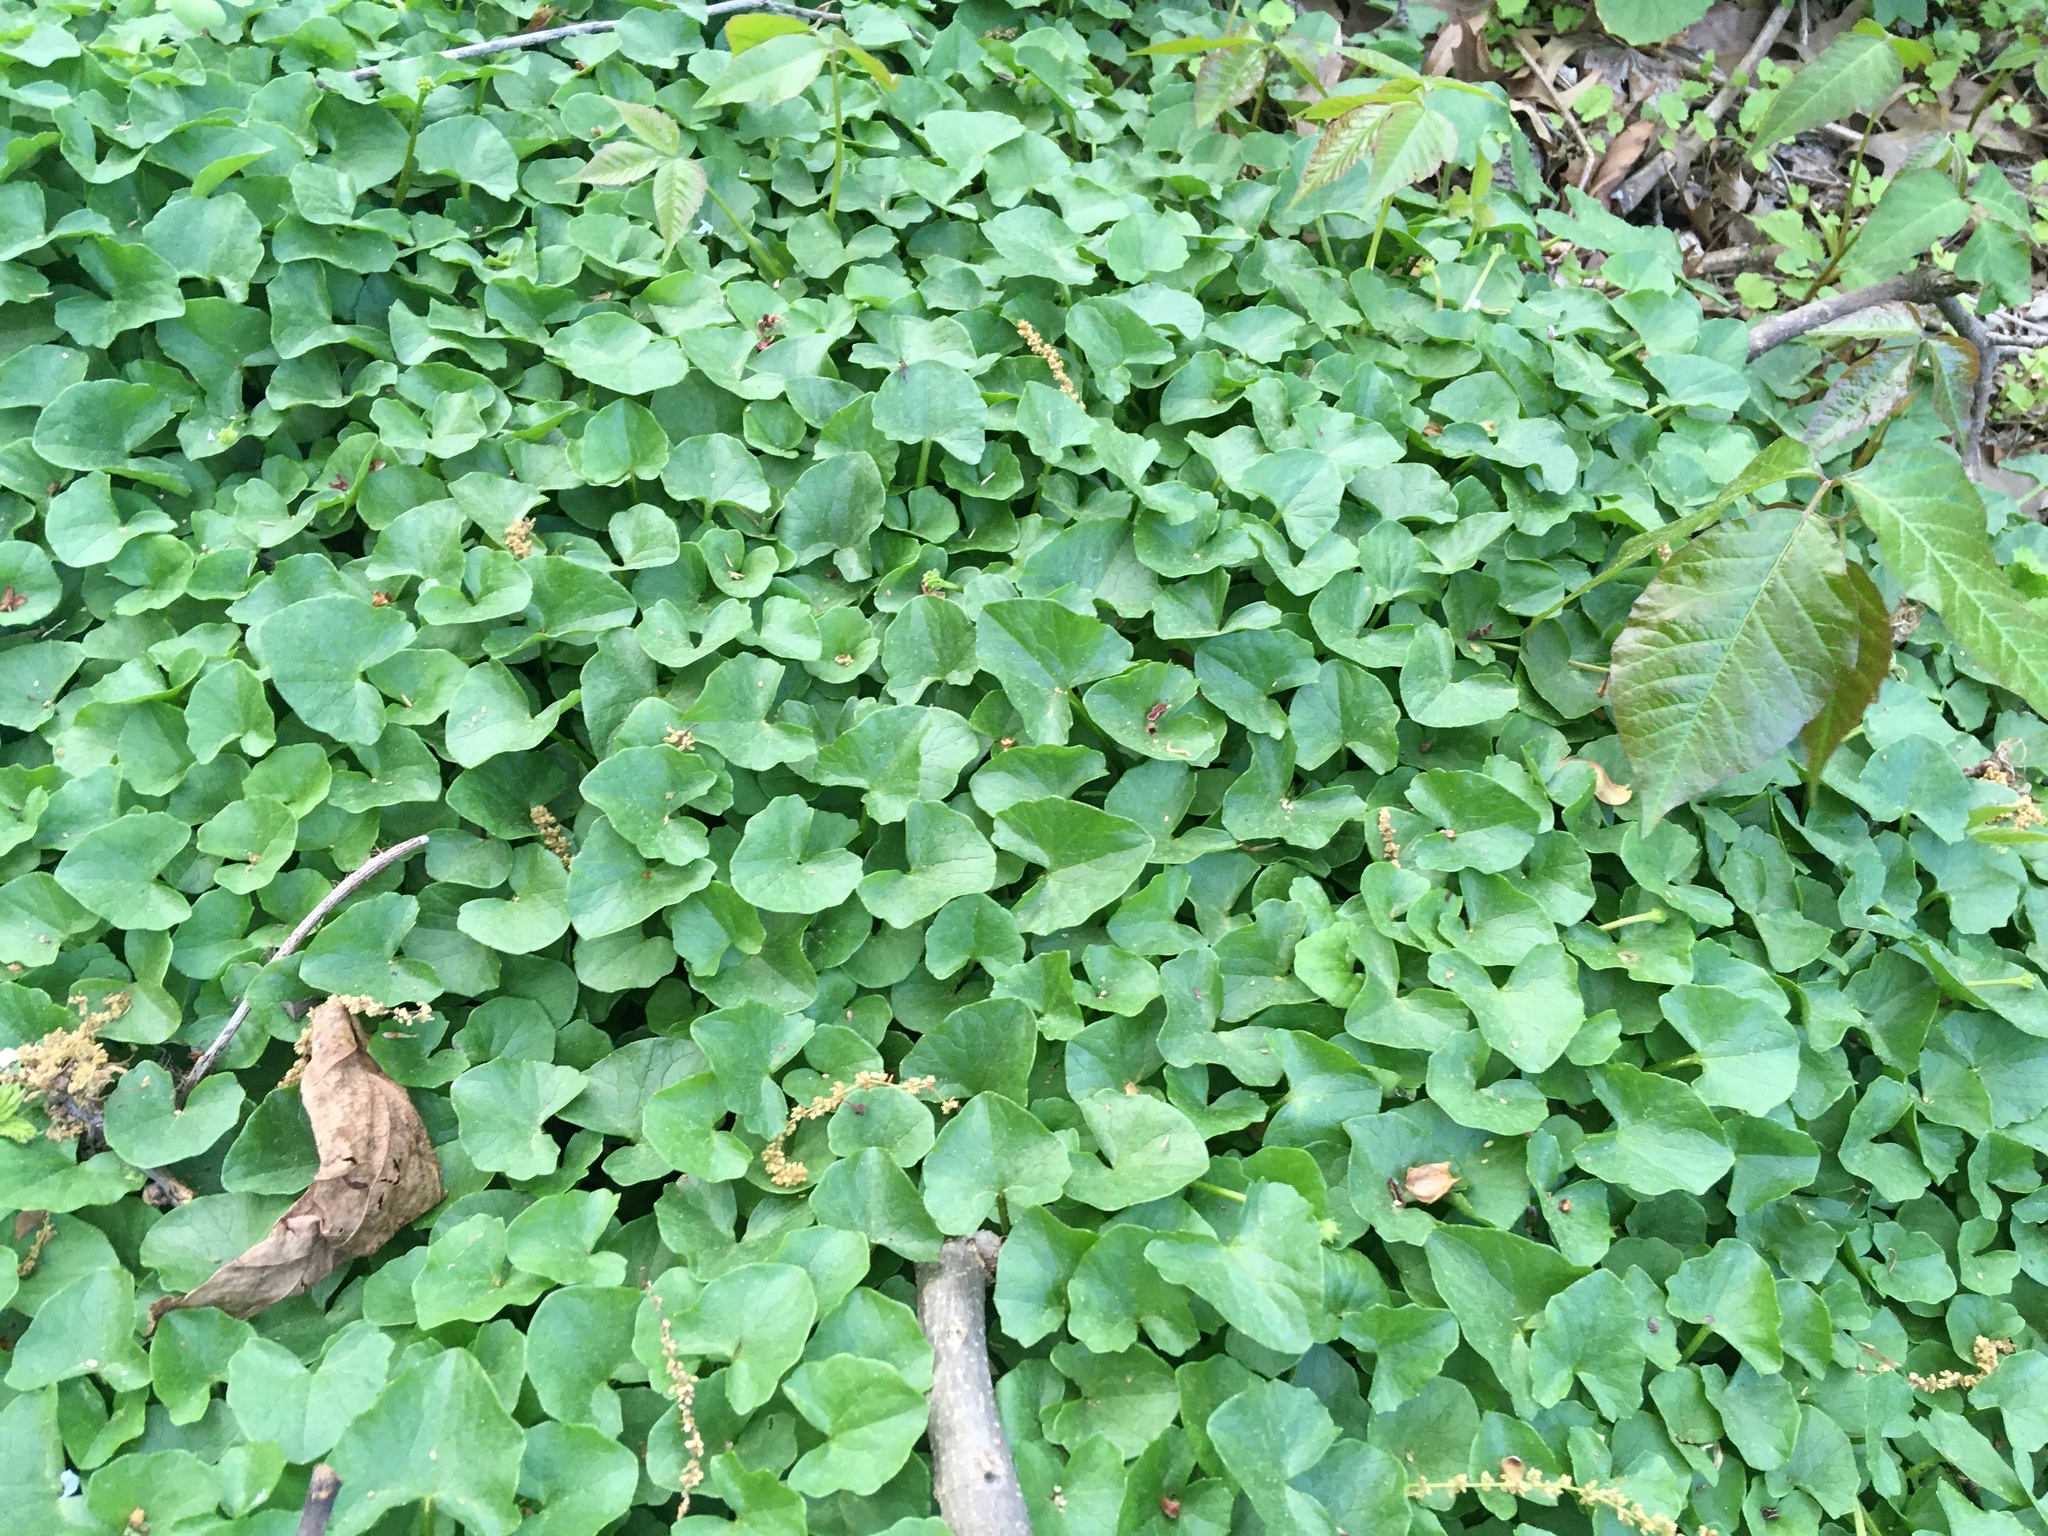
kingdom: Plantae
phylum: Tracheophyta
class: Magnoliopsida
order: Ranunculales
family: Ranunculaceae
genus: Ficaria
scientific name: Ficaria verna
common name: Lesser celandine
